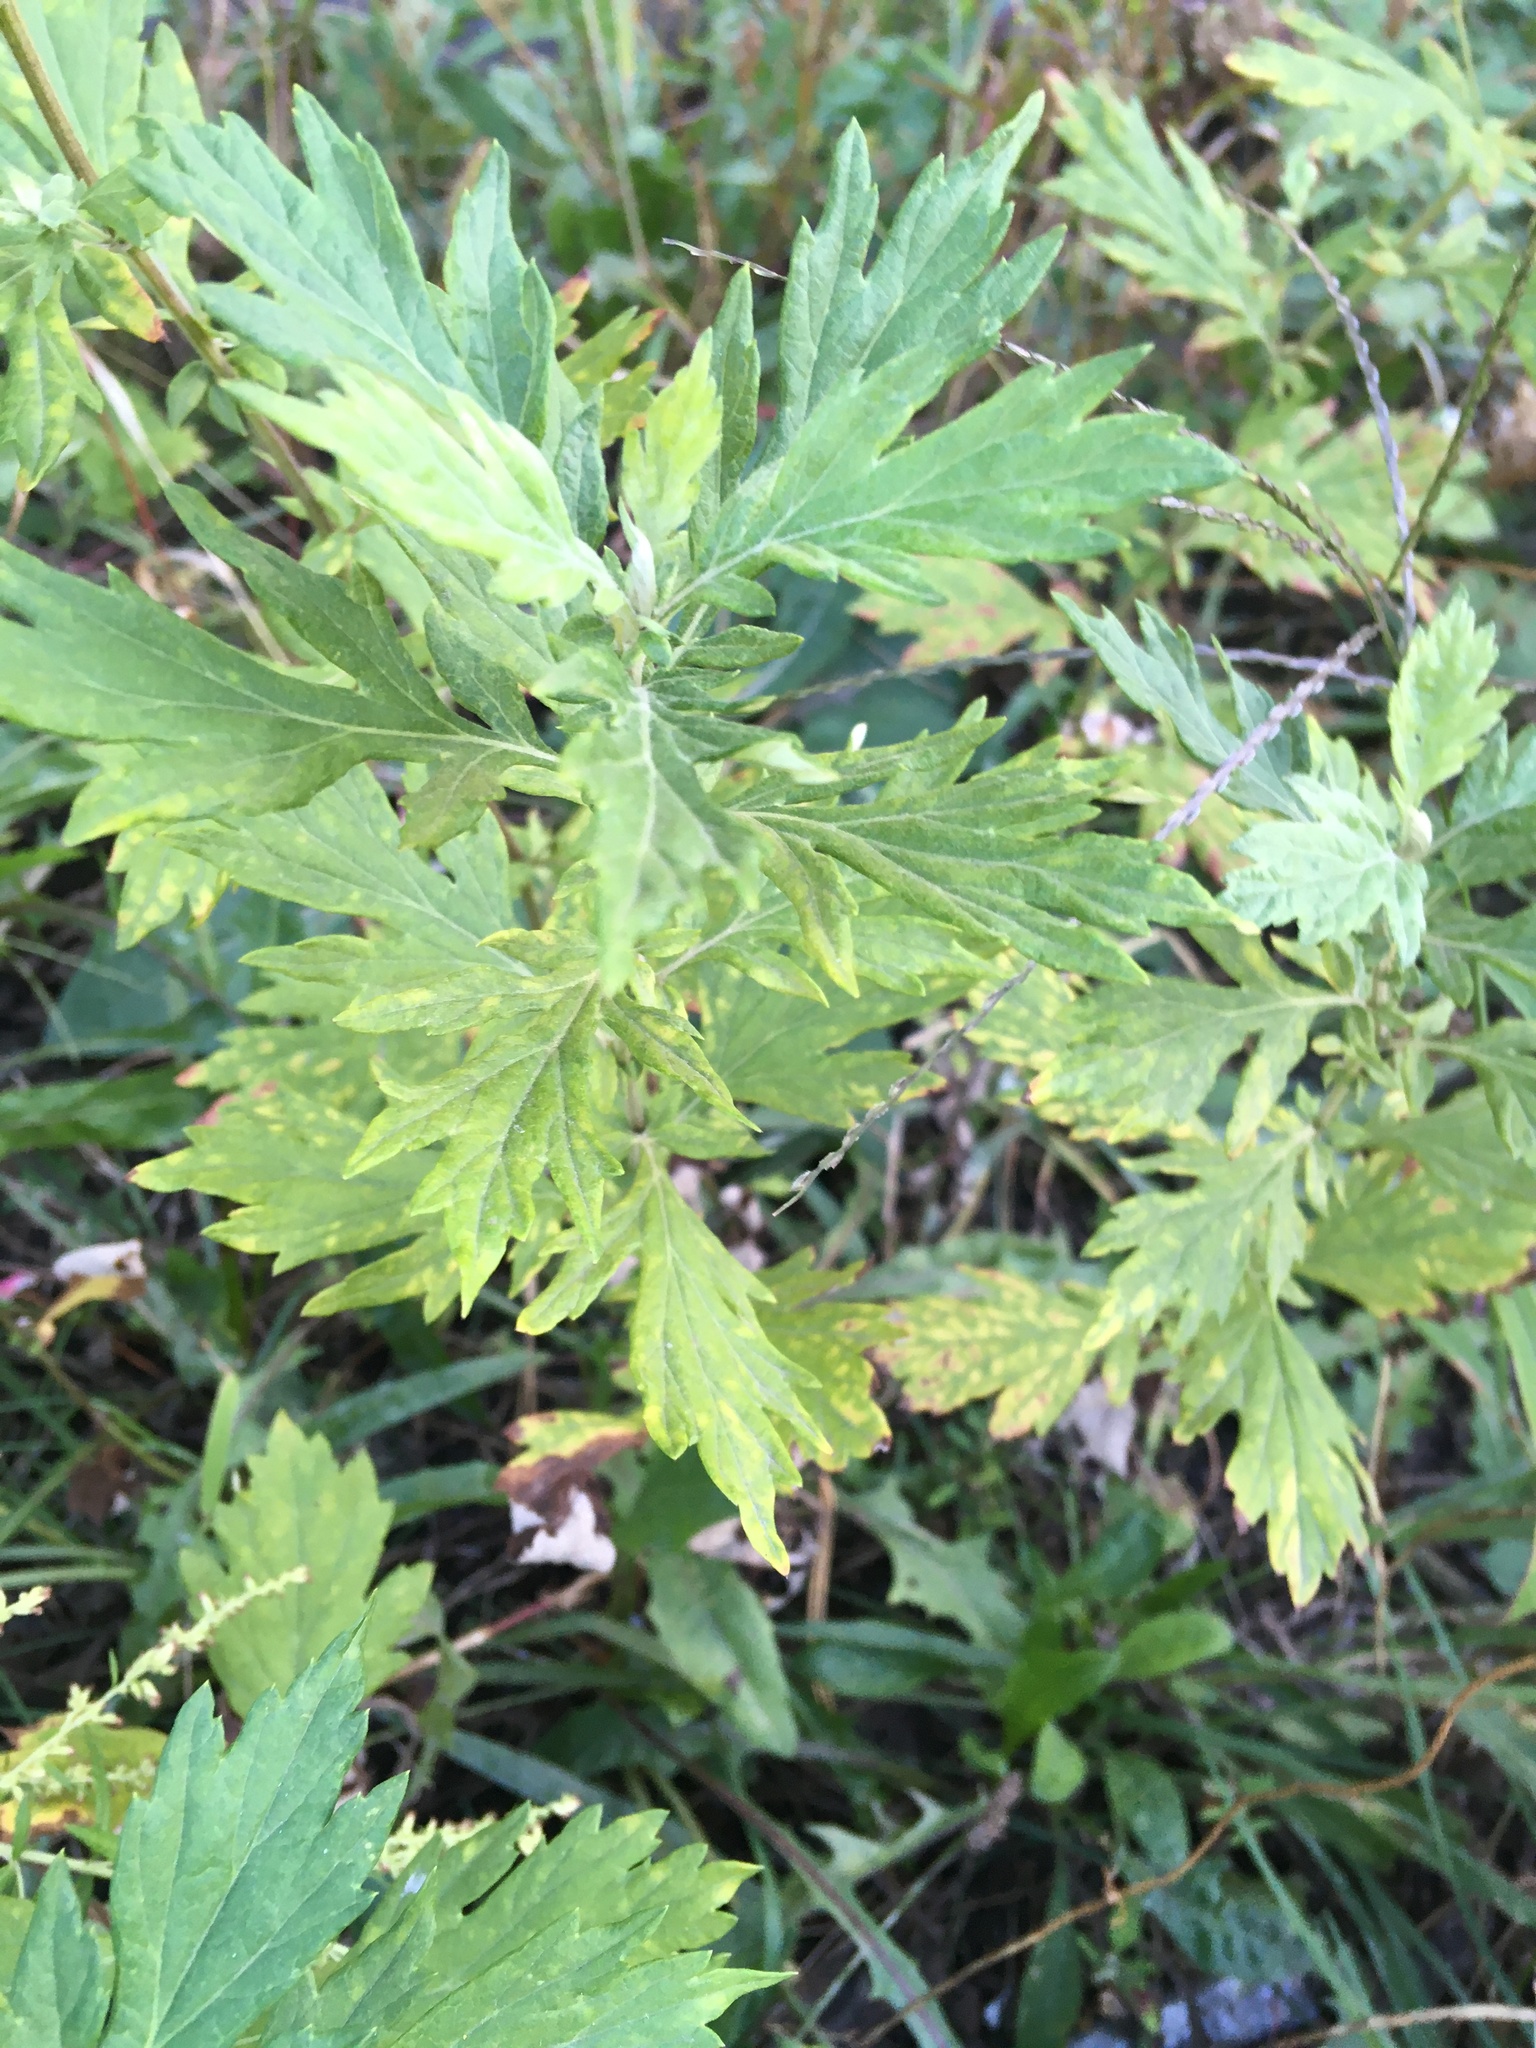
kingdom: Plantae
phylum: Tracheophyta
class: Magnoliopsida
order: Asterales
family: Asteraceae
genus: Artemisia
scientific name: Artemisia vulgaris
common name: Mugwort
